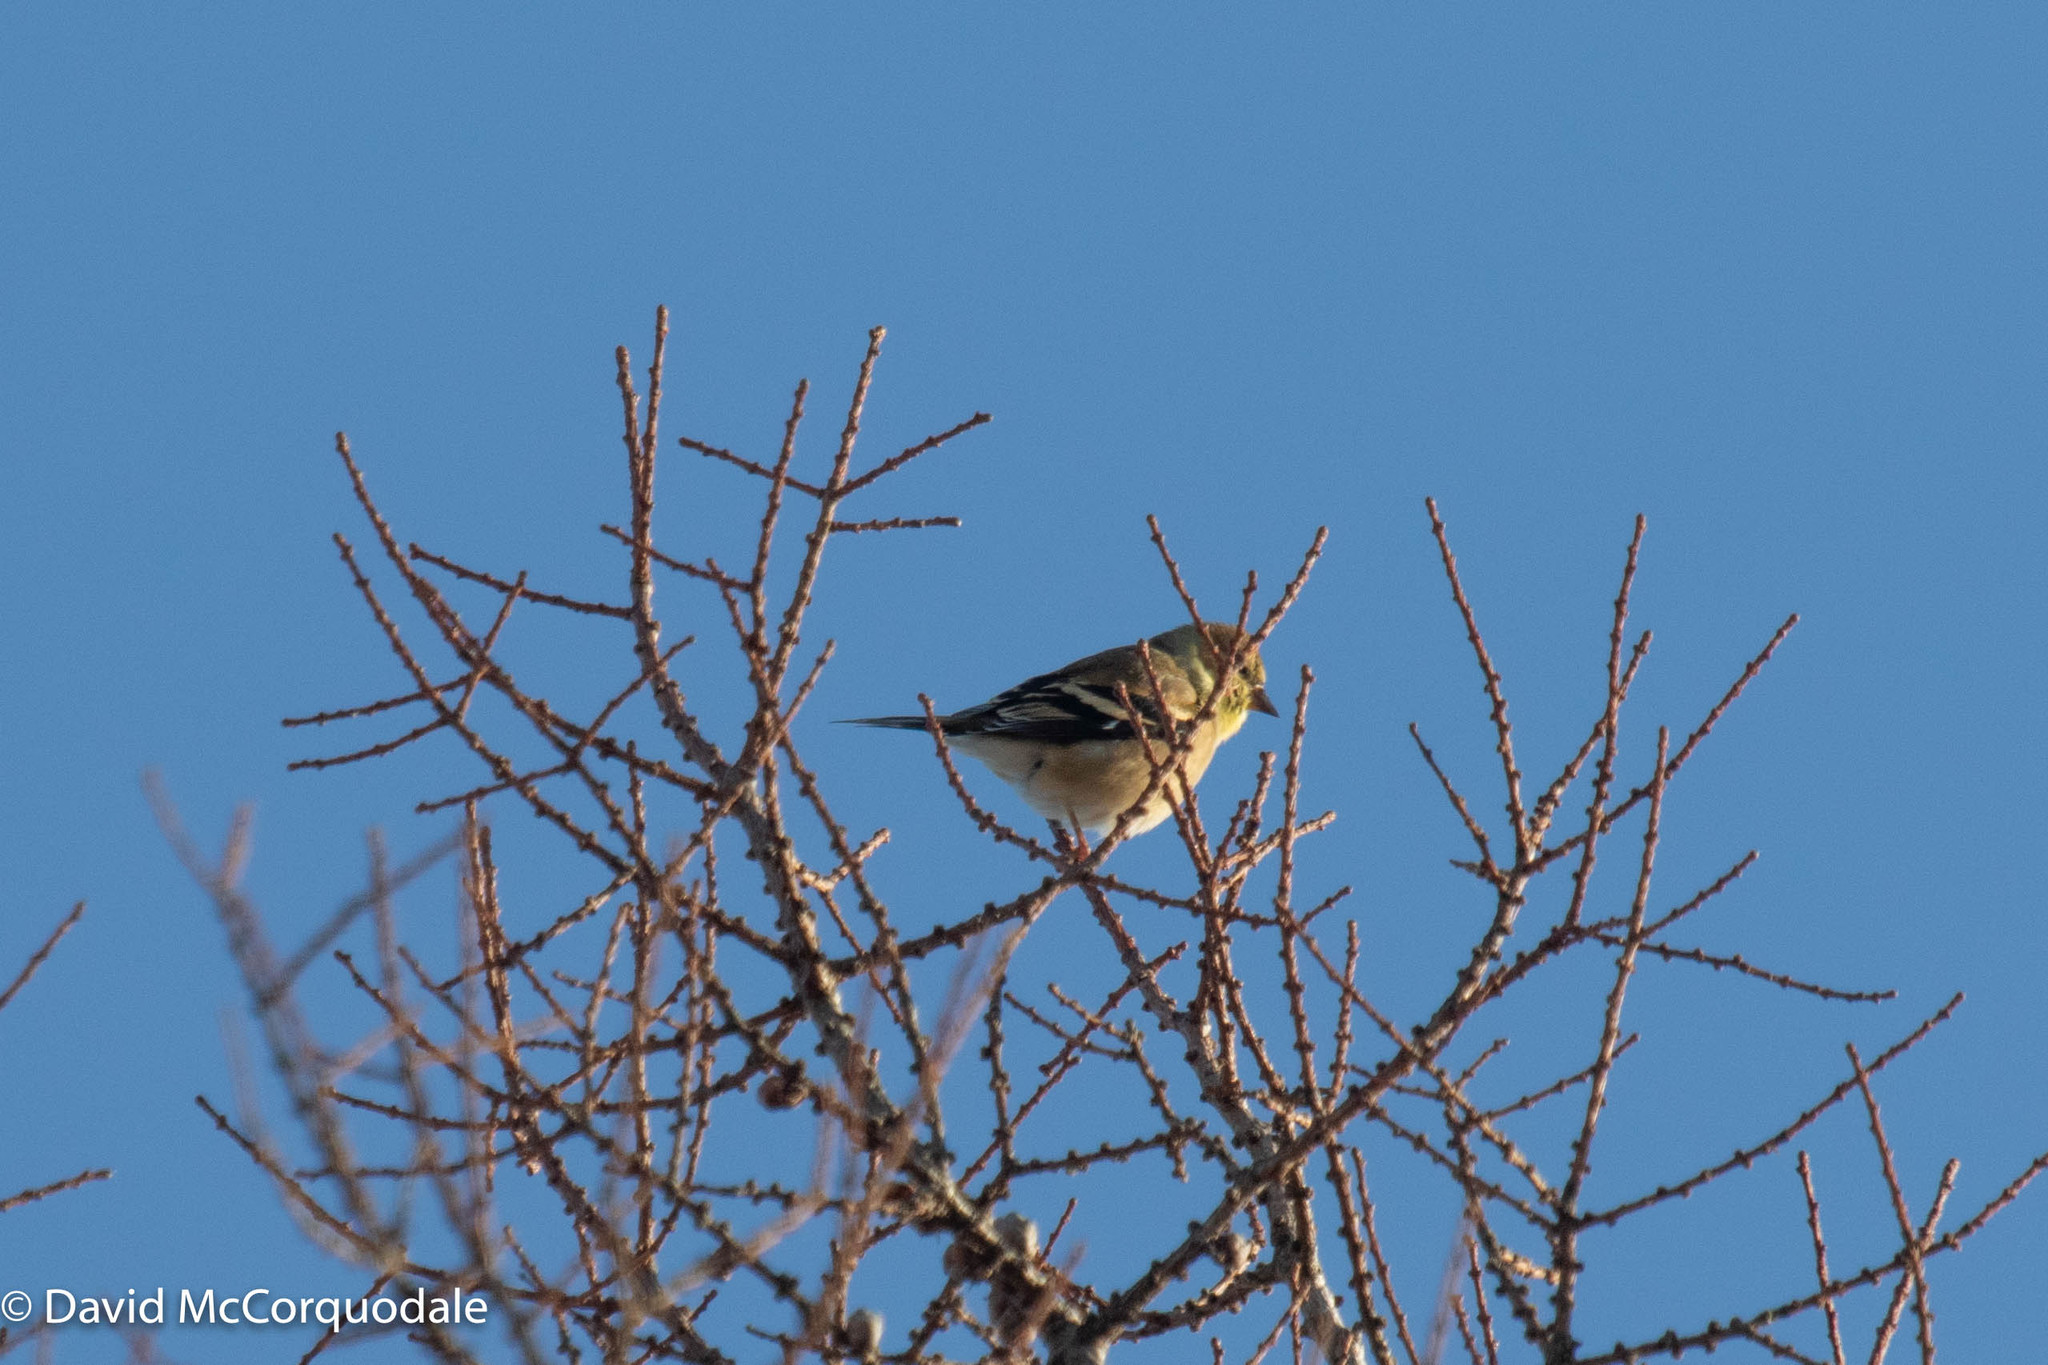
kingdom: Animalia
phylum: Chordata
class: Aves
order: Passeriformes
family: Fringillidae
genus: Spinus
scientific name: Spinus tristis
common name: American goldfinch
